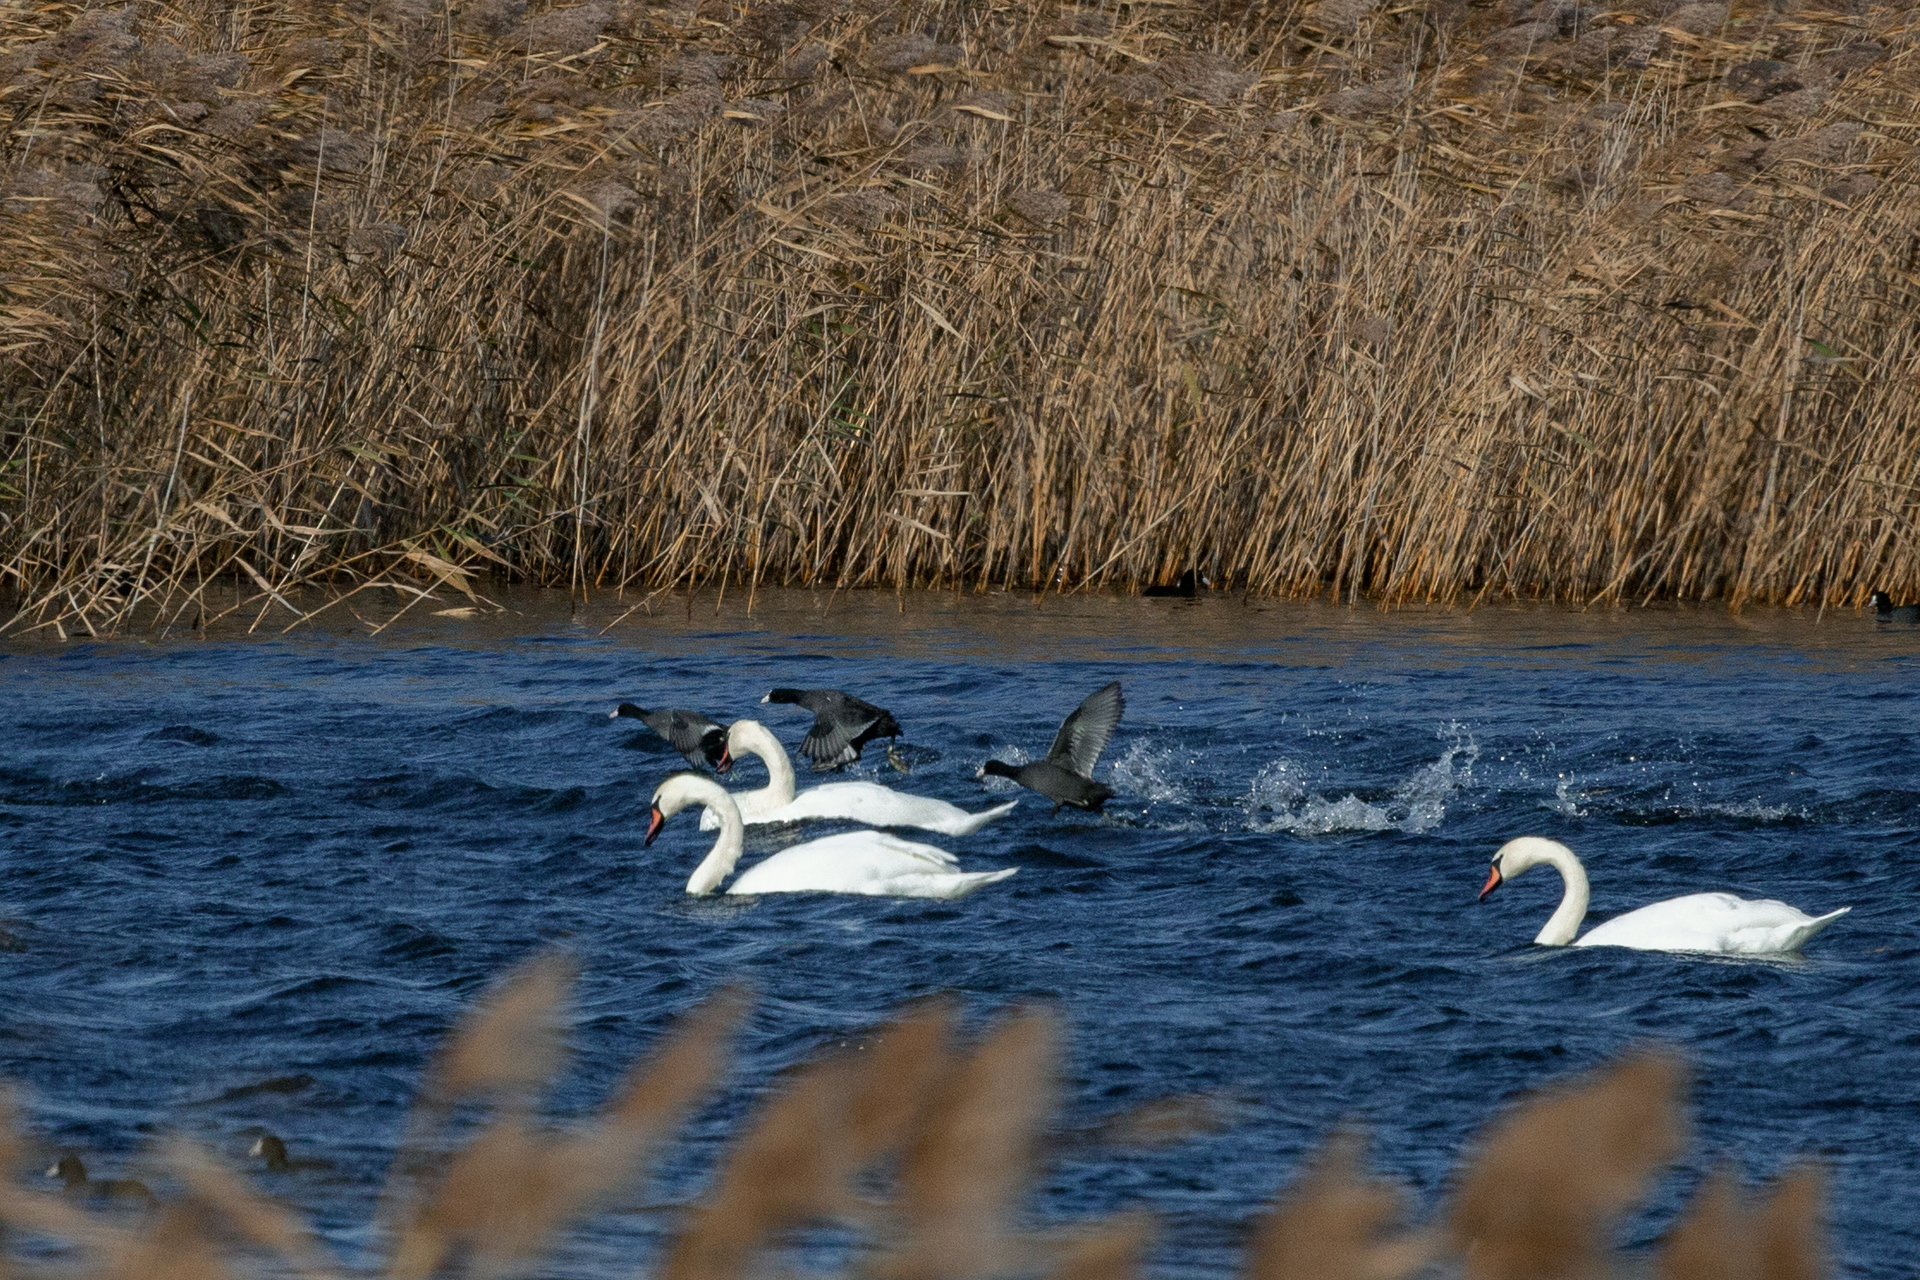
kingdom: Animalia
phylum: Chordata
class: Aves
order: Gruiformes
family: Rallidae
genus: Fulica
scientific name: Fulica atra
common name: Eurasian coot
